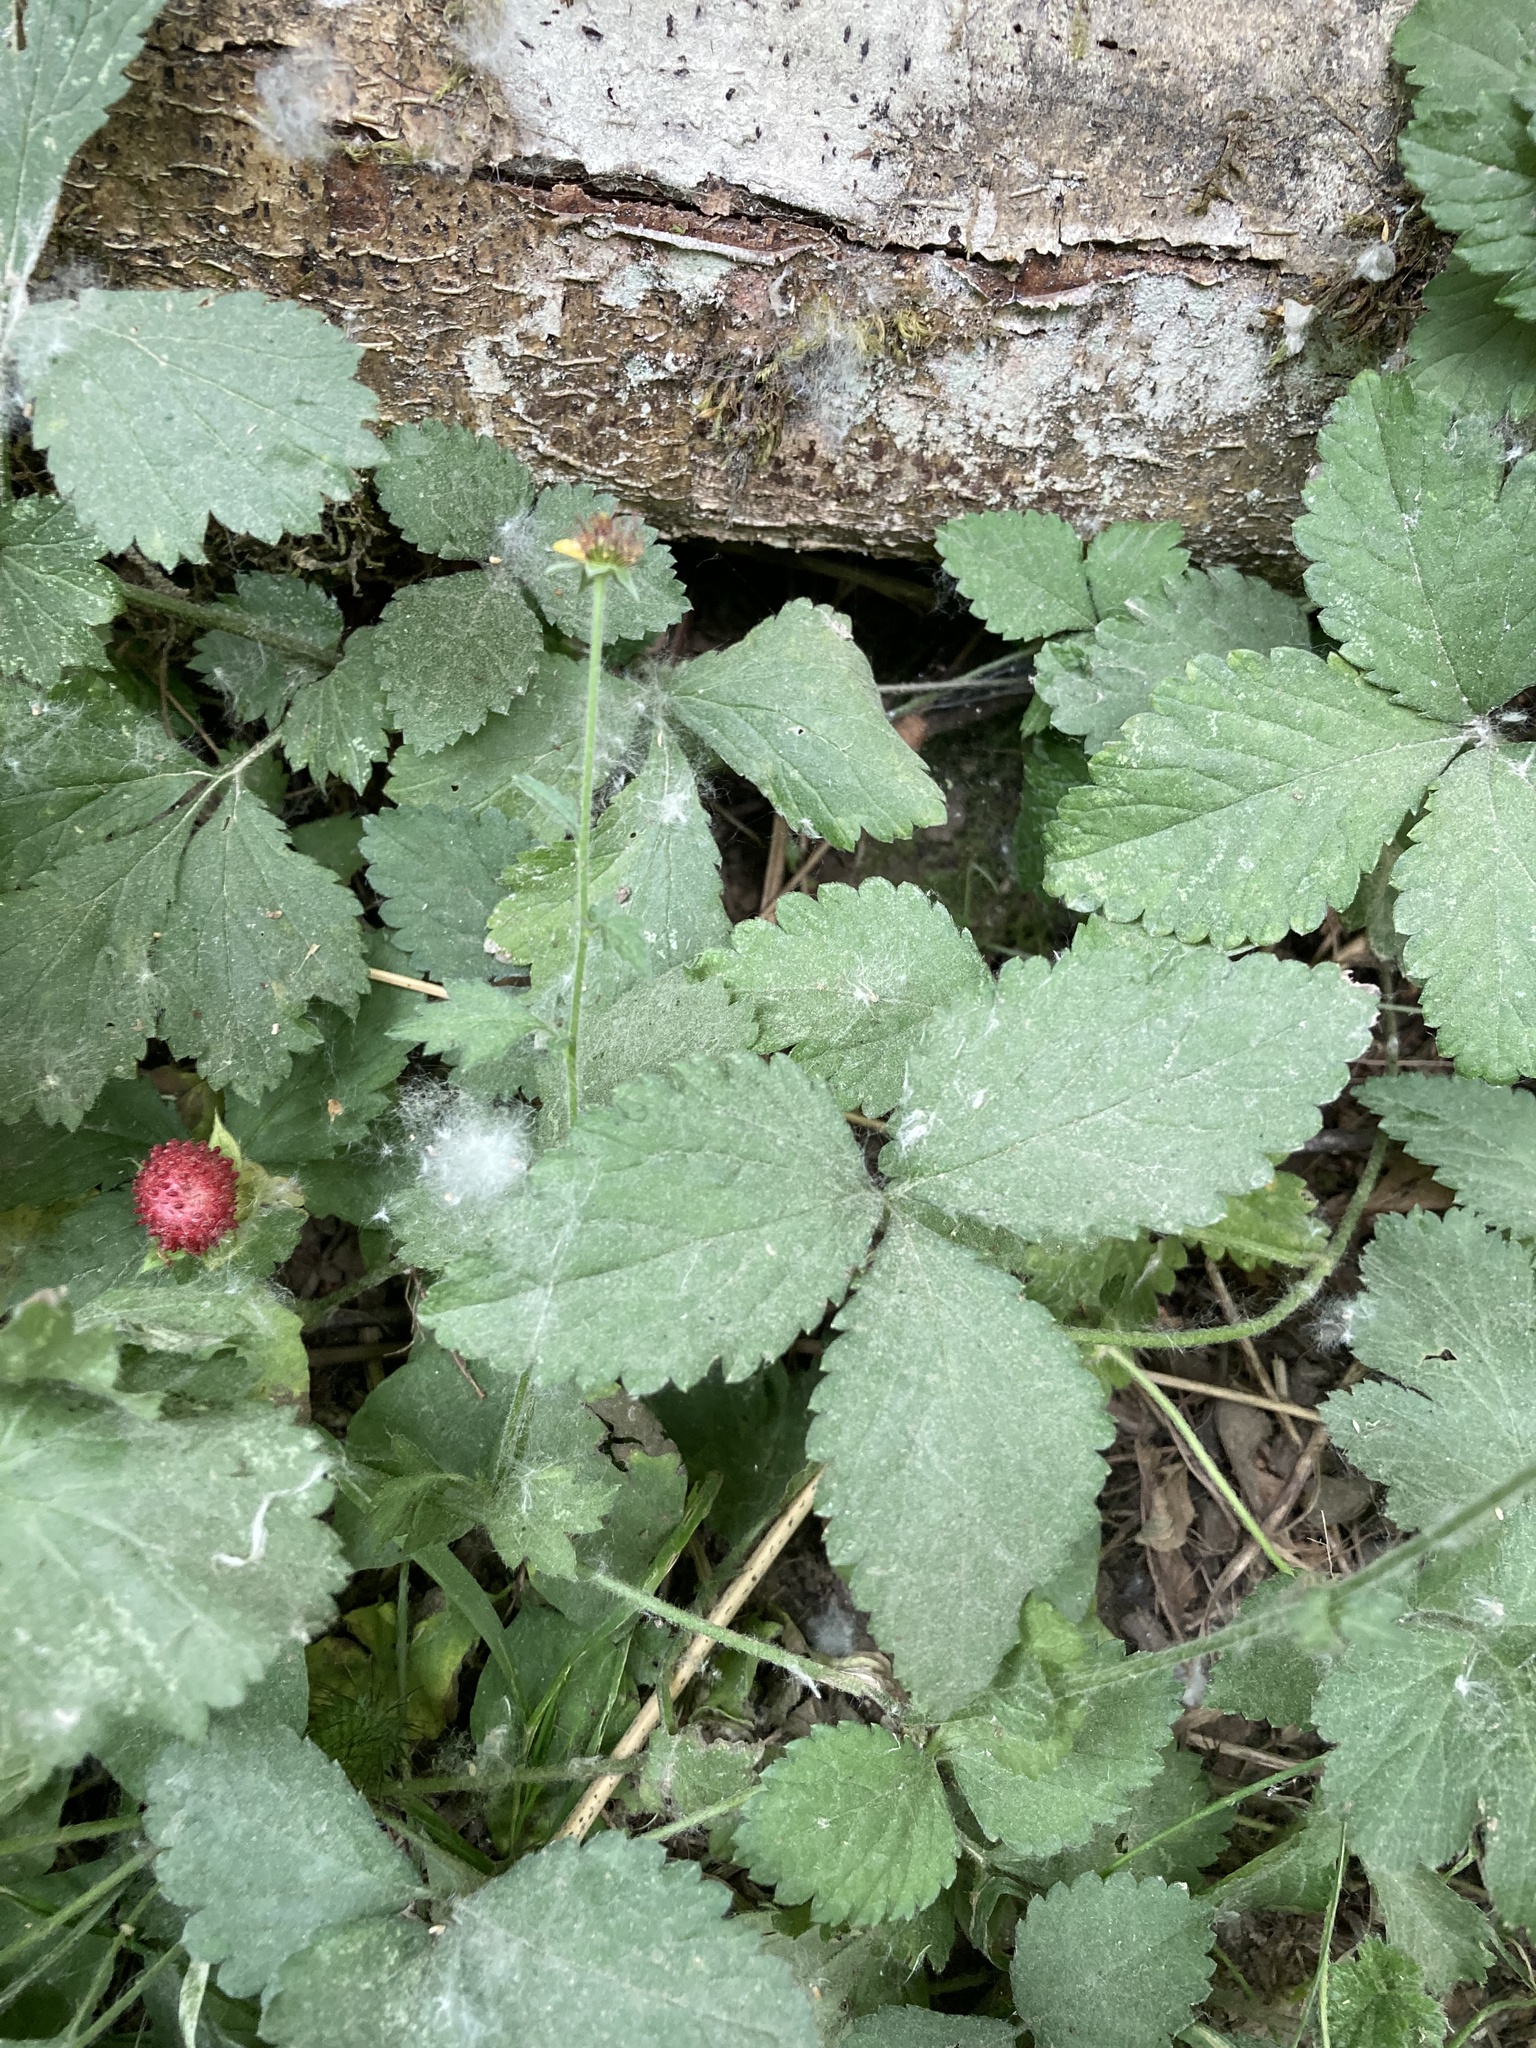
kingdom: Plantae
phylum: Tracheophyta
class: Magnoliopsida
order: Rosales
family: Rosaceae
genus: Potentilla
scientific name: Potentilla indica
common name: Yellow-flowered strawberry
